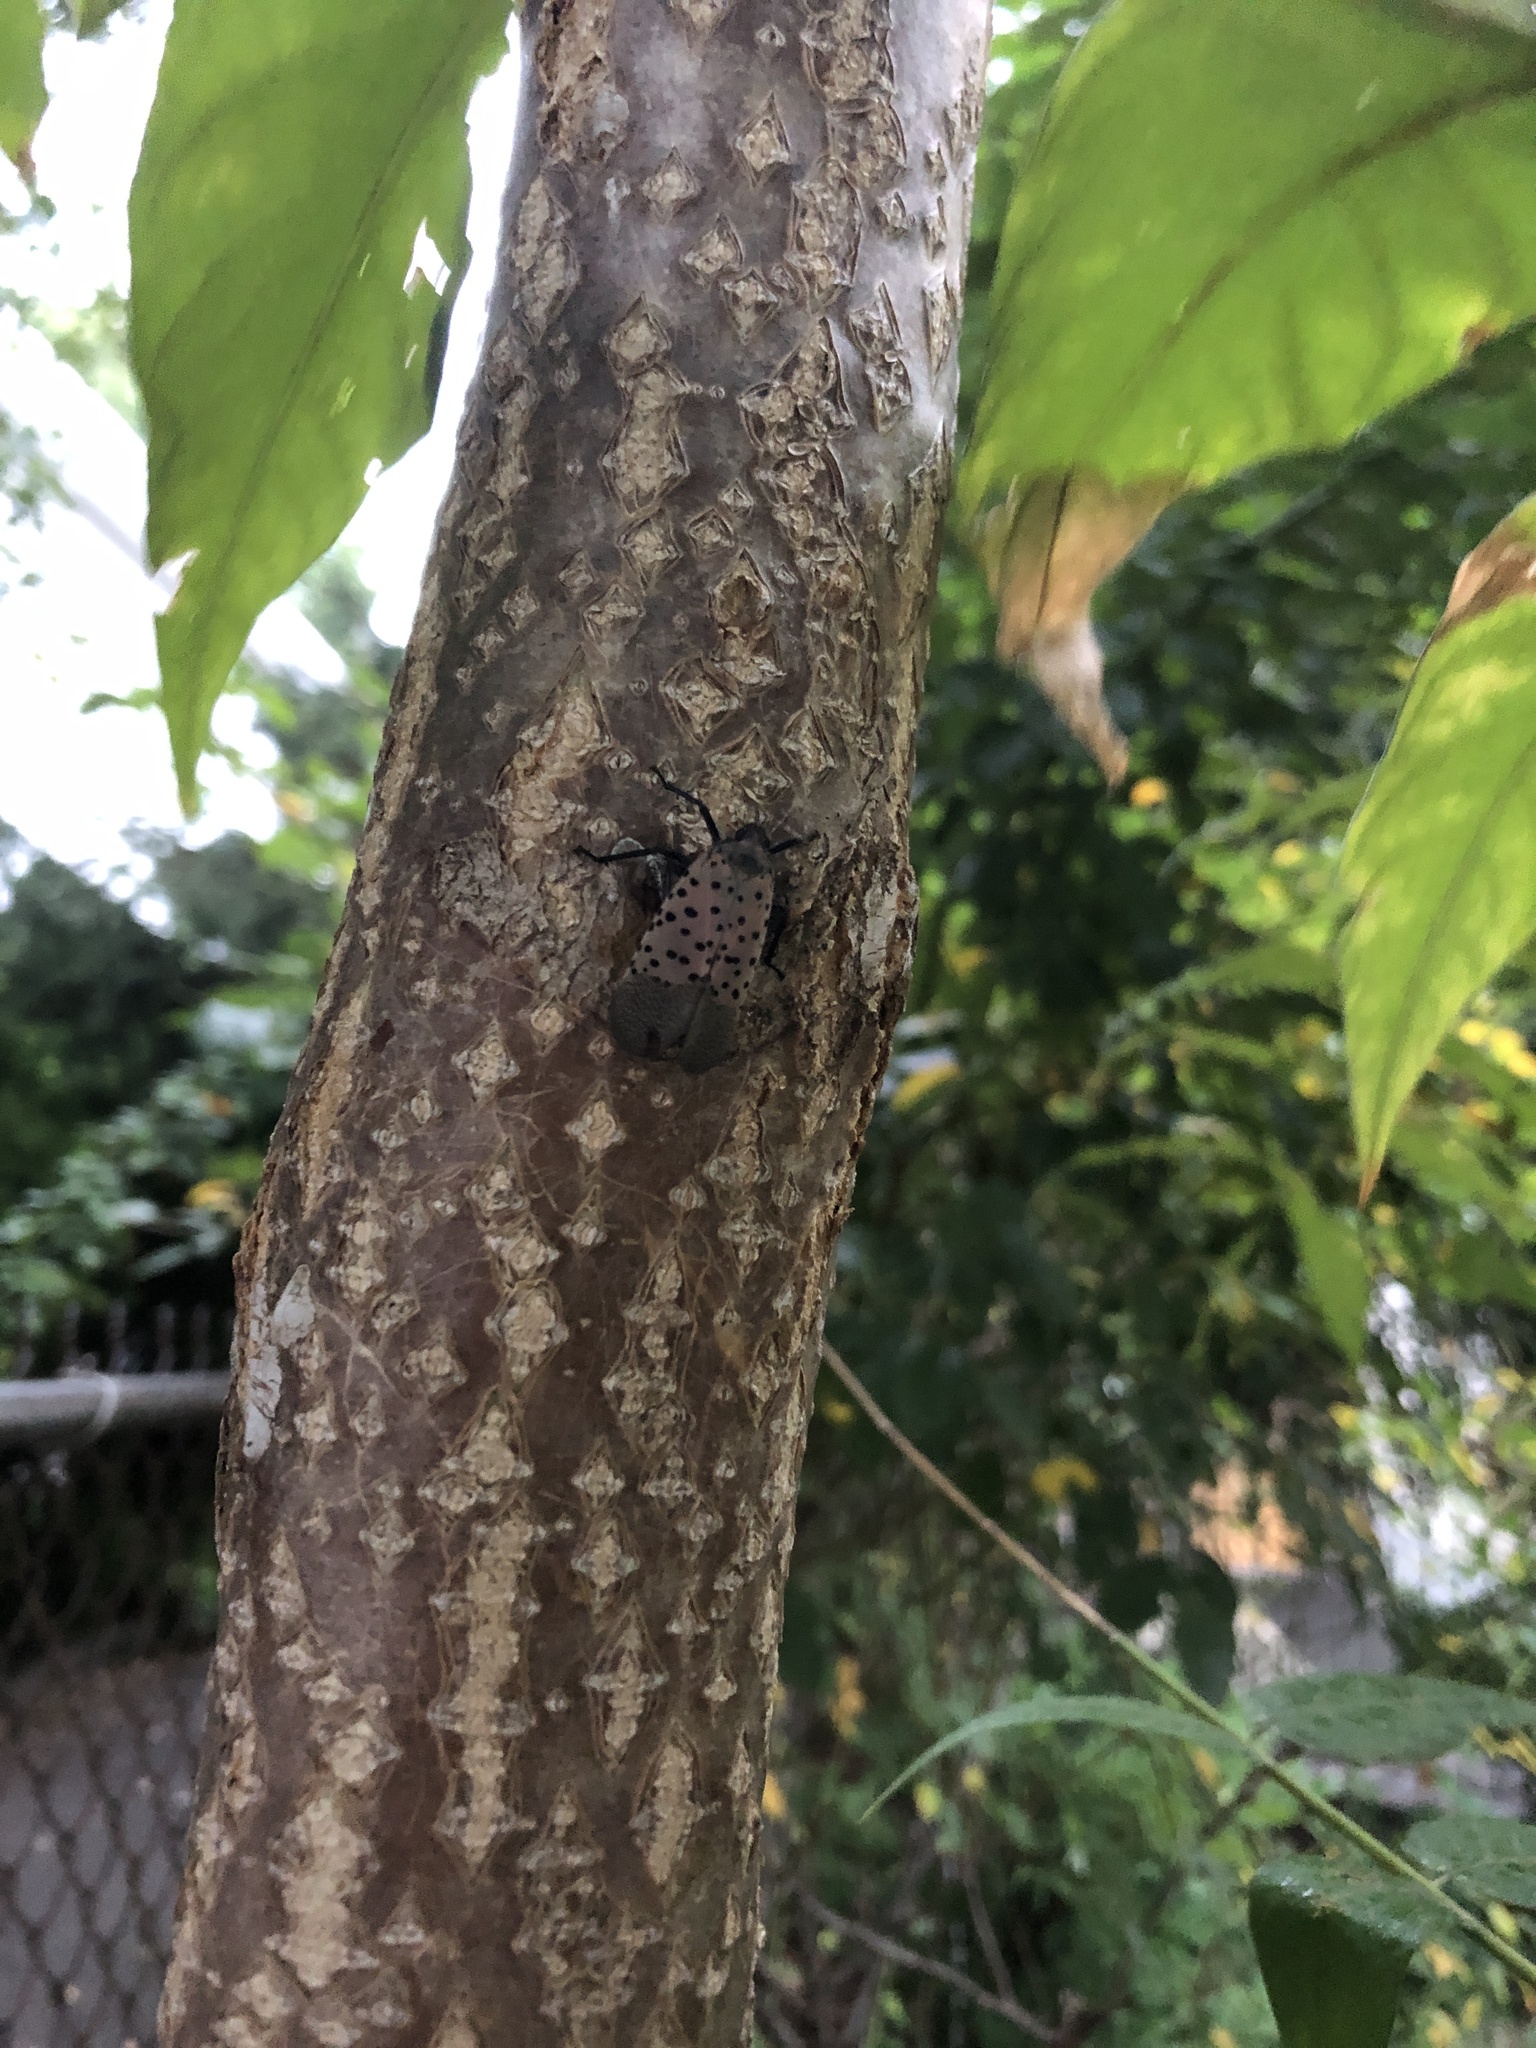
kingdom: Animalia
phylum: Arthropoda
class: Insecta
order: Hemiptera
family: Fulgoridae
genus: Lycorma
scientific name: Lycorma delicatula
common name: Spotted lanternfly
